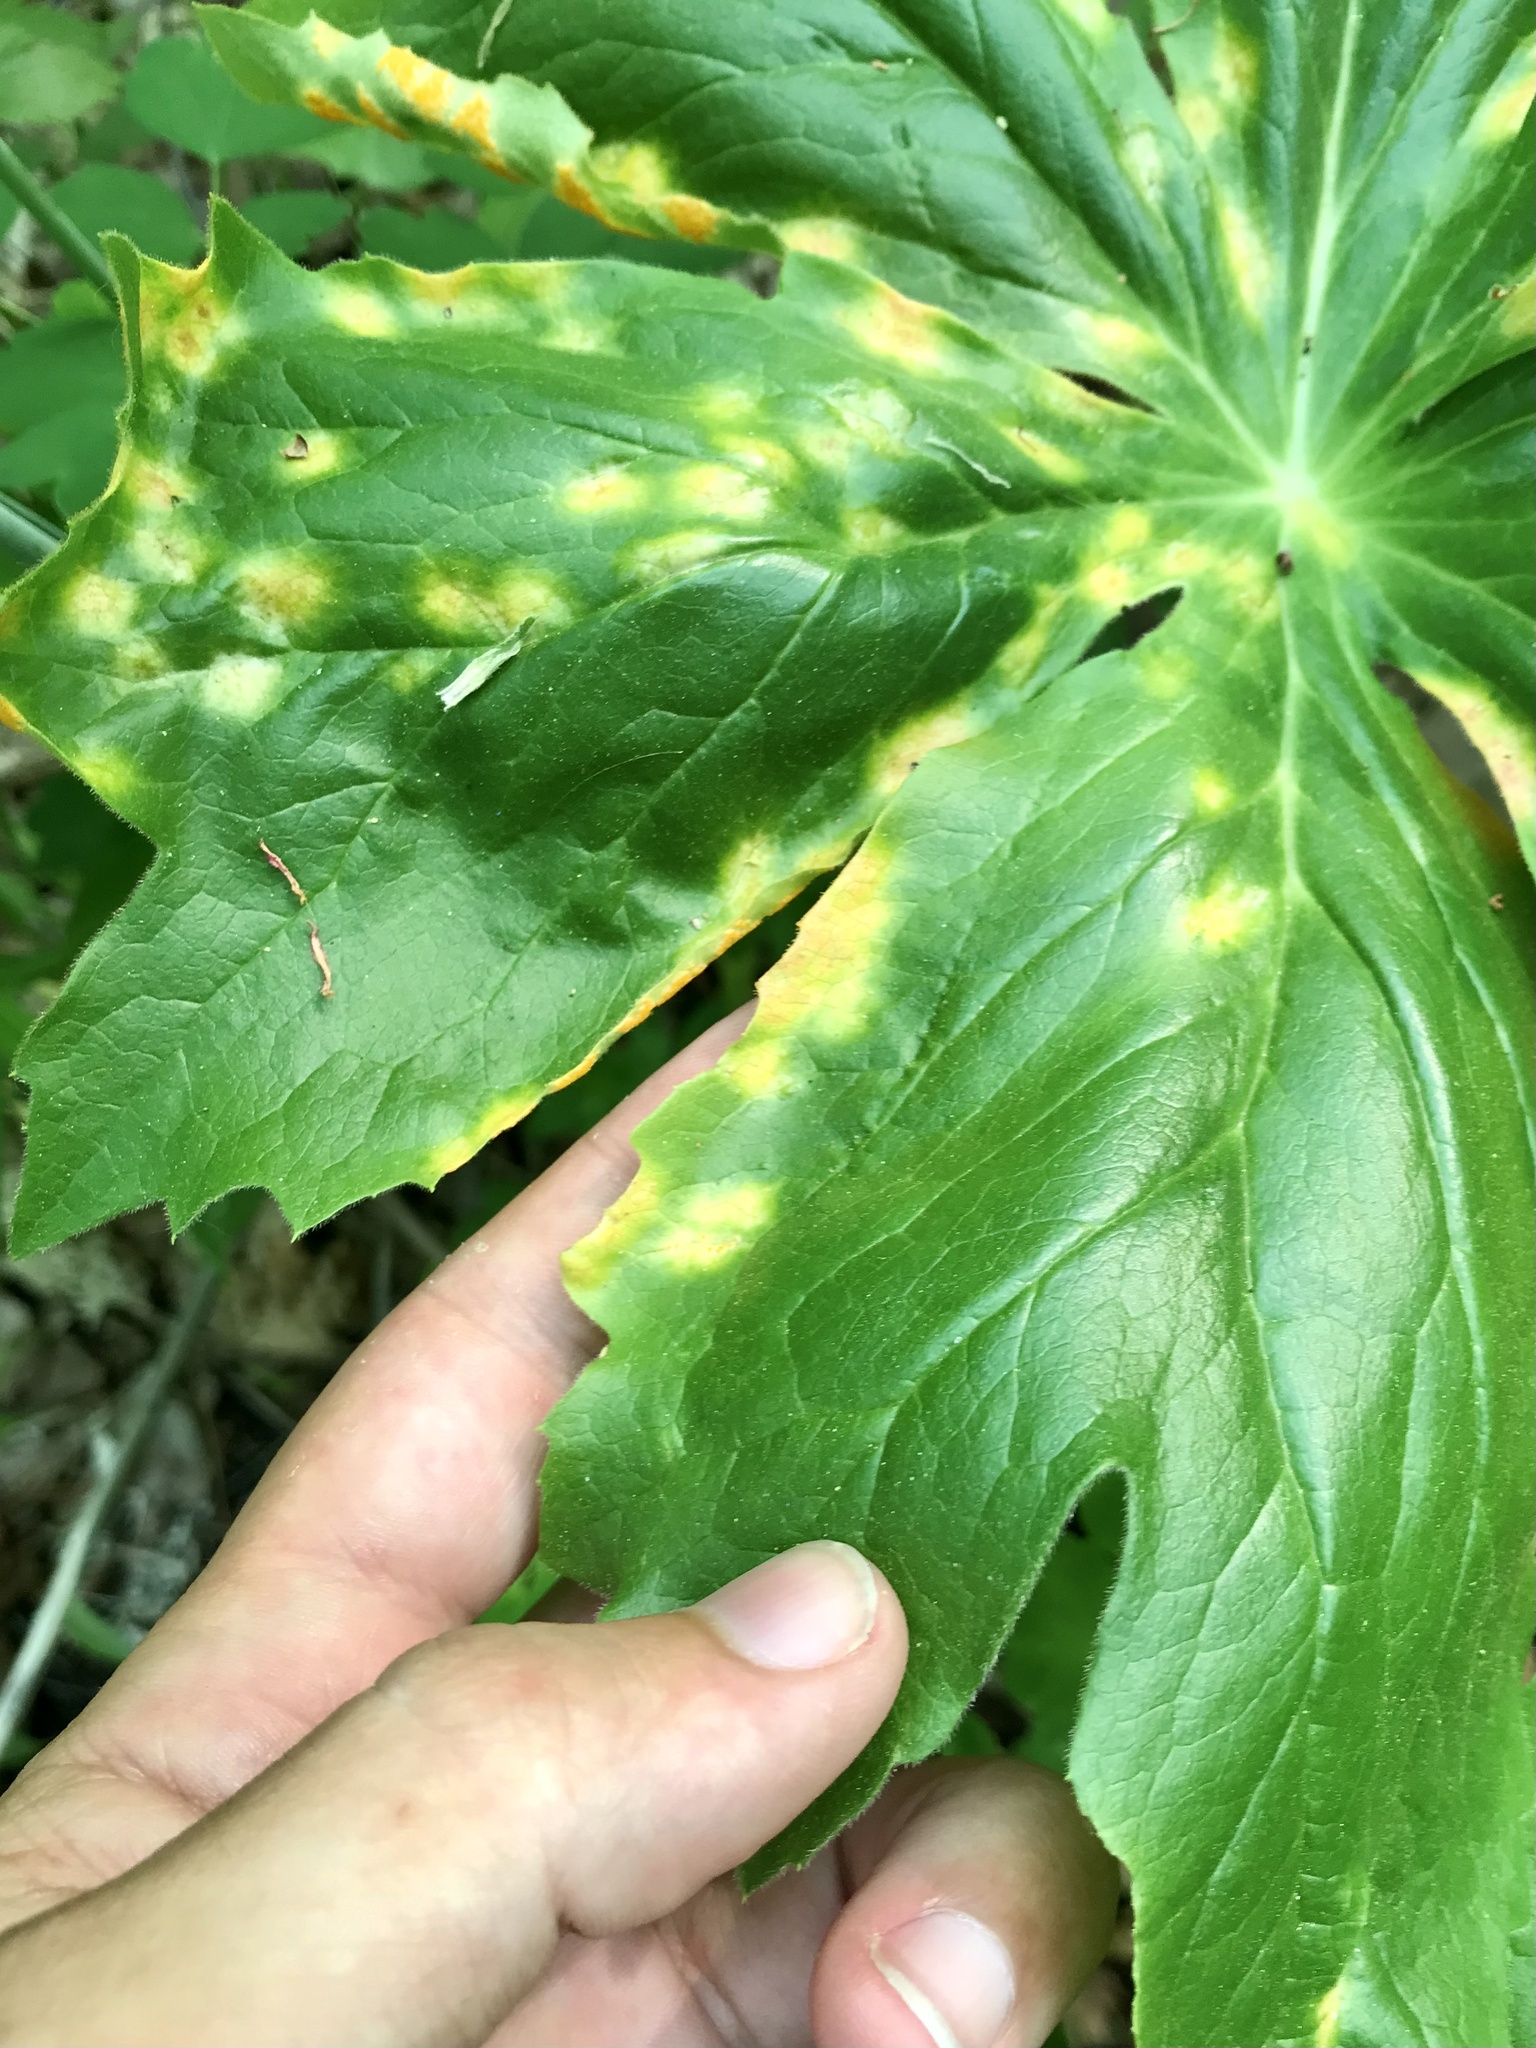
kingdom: Fungi
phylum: Basidiomycota
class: Pucciniomycetes
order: Pucciniales
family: Pucciniaceae
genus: Puccinia
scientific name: Puccinia podophylli
